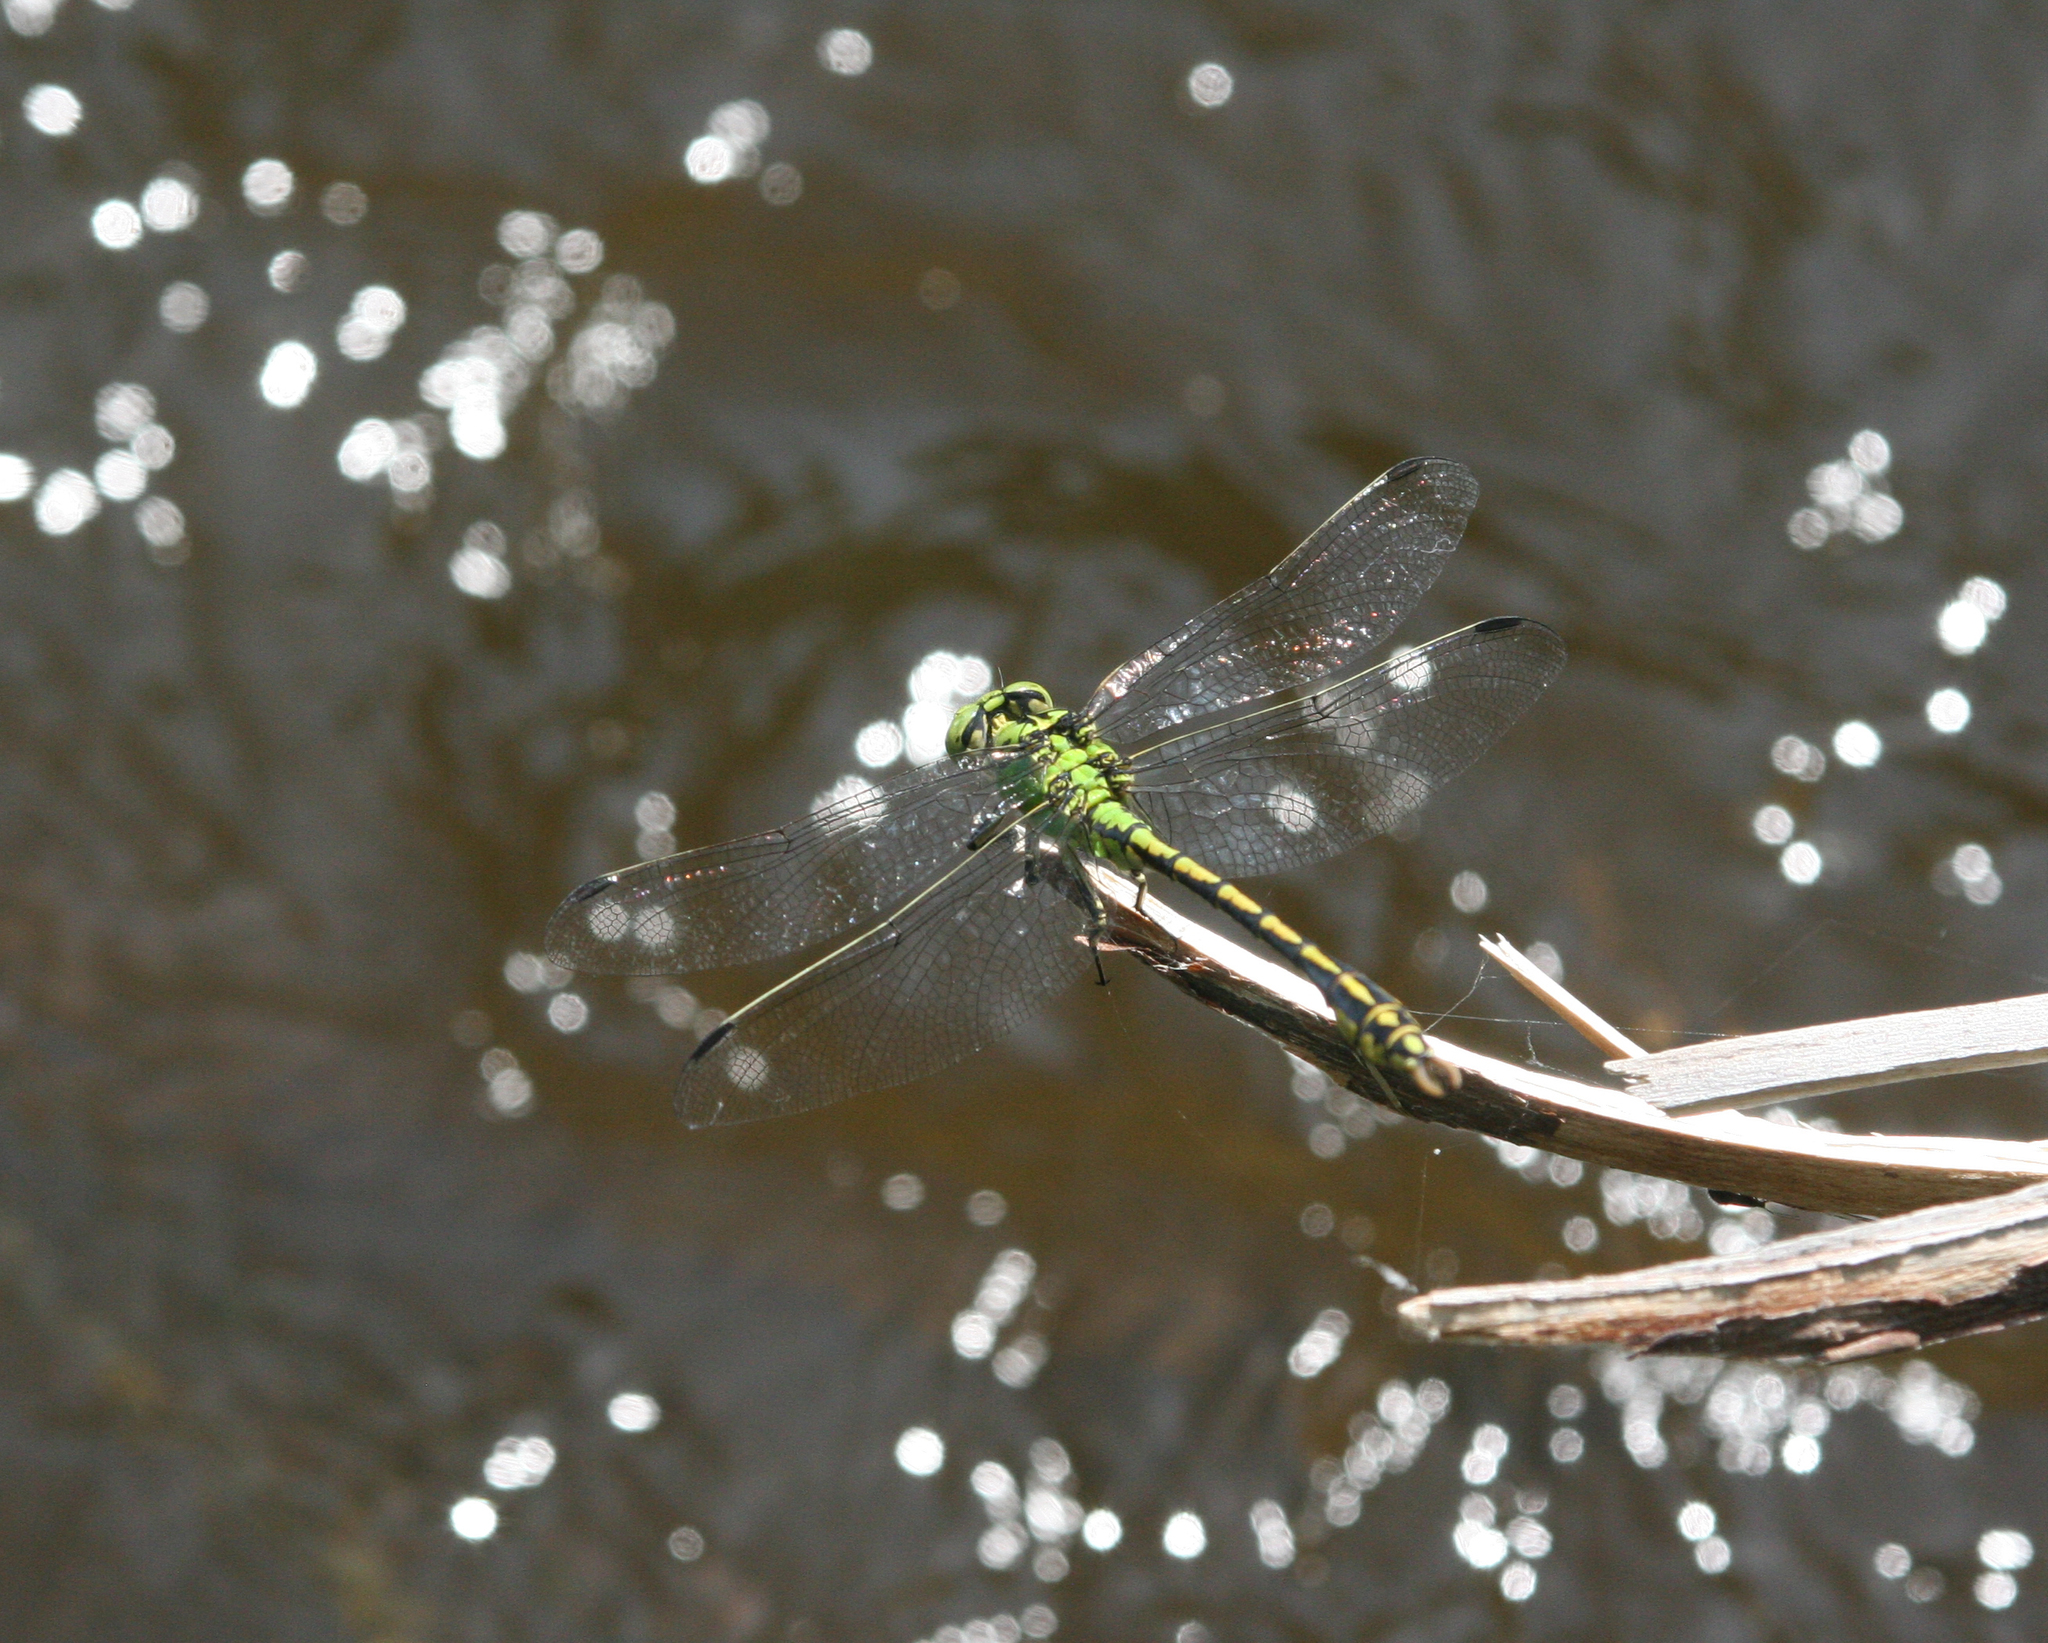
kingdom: Animalia
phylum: Arthropoda
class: Insecta
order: Odonata
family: Gomphidae
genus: Ophiogomphus
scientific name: Ophiogomphus spinicornis
